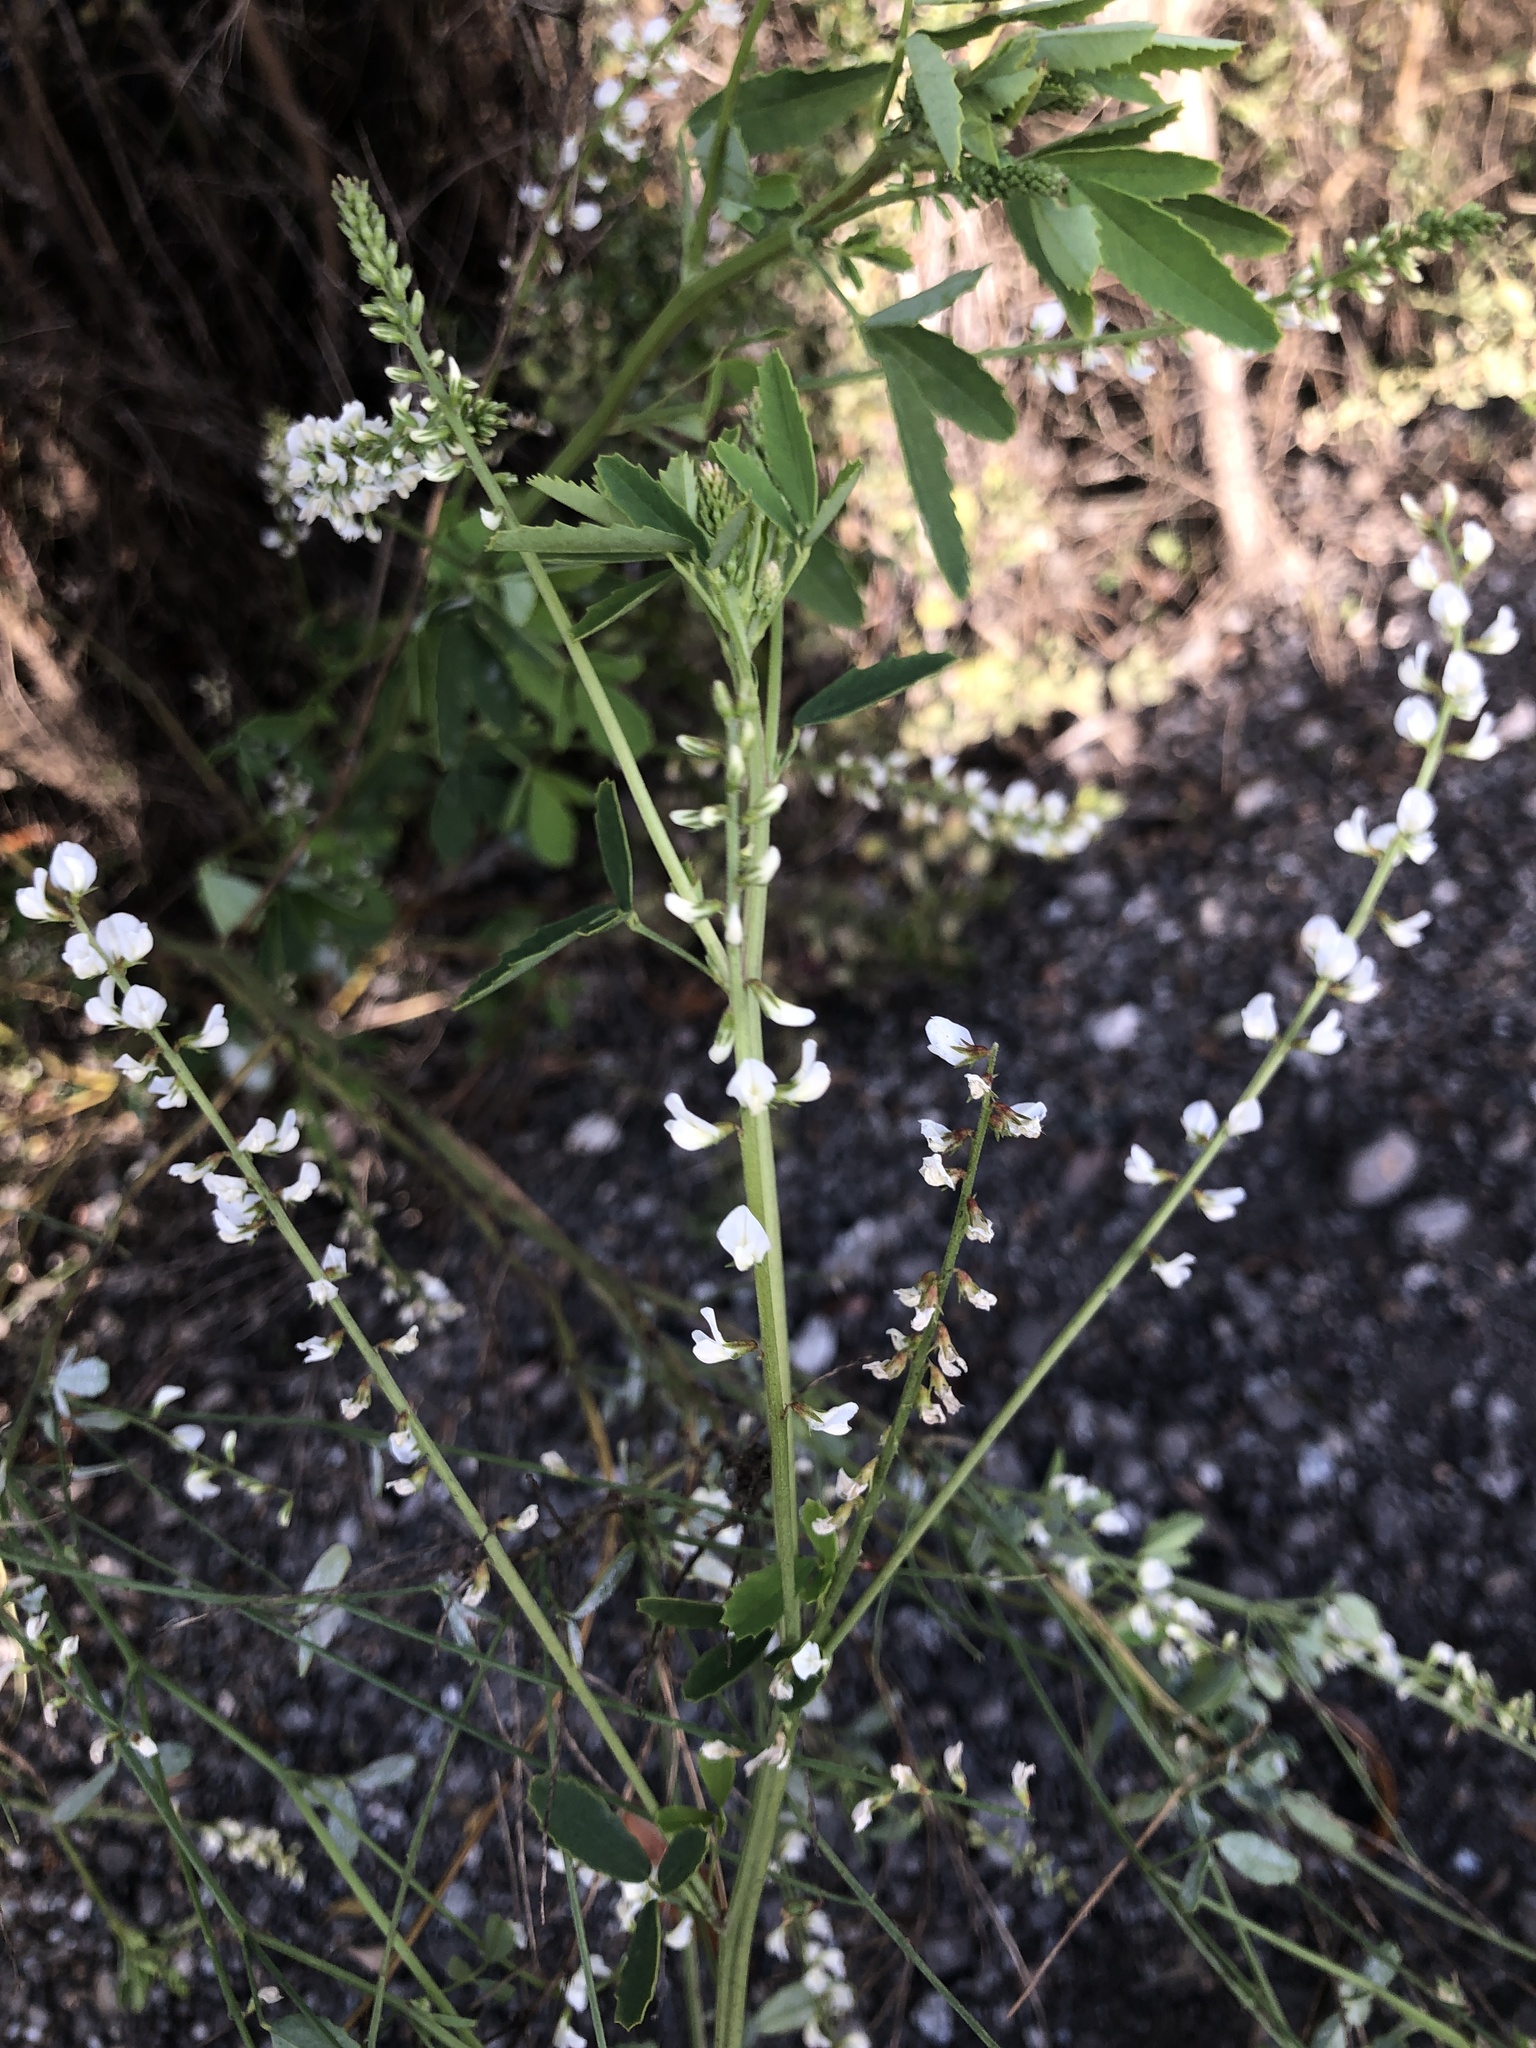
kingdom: Plantae
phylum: Tracheophyta
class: Magnoliopsida
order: Fabales
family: Fabaceae
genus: Melilotus
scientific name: Melilotus albus
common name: White melilot
